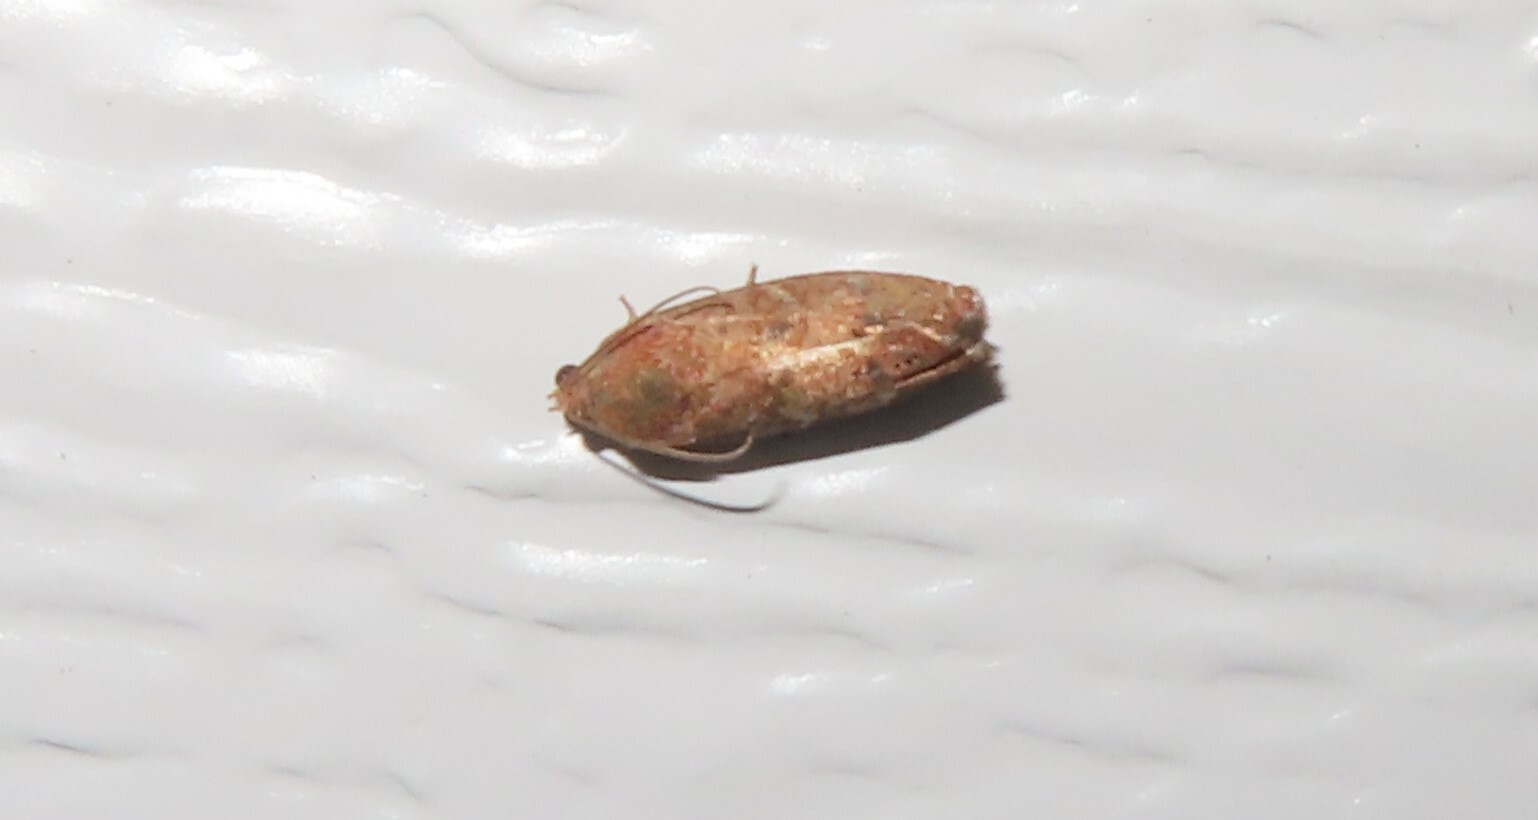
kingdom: Animalia
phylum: Arthropoda
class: Insecta
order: Lepidoptera
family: Tortricidae
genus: Cydia
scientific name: Cydia latiferreana
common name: Filbertworm moth
